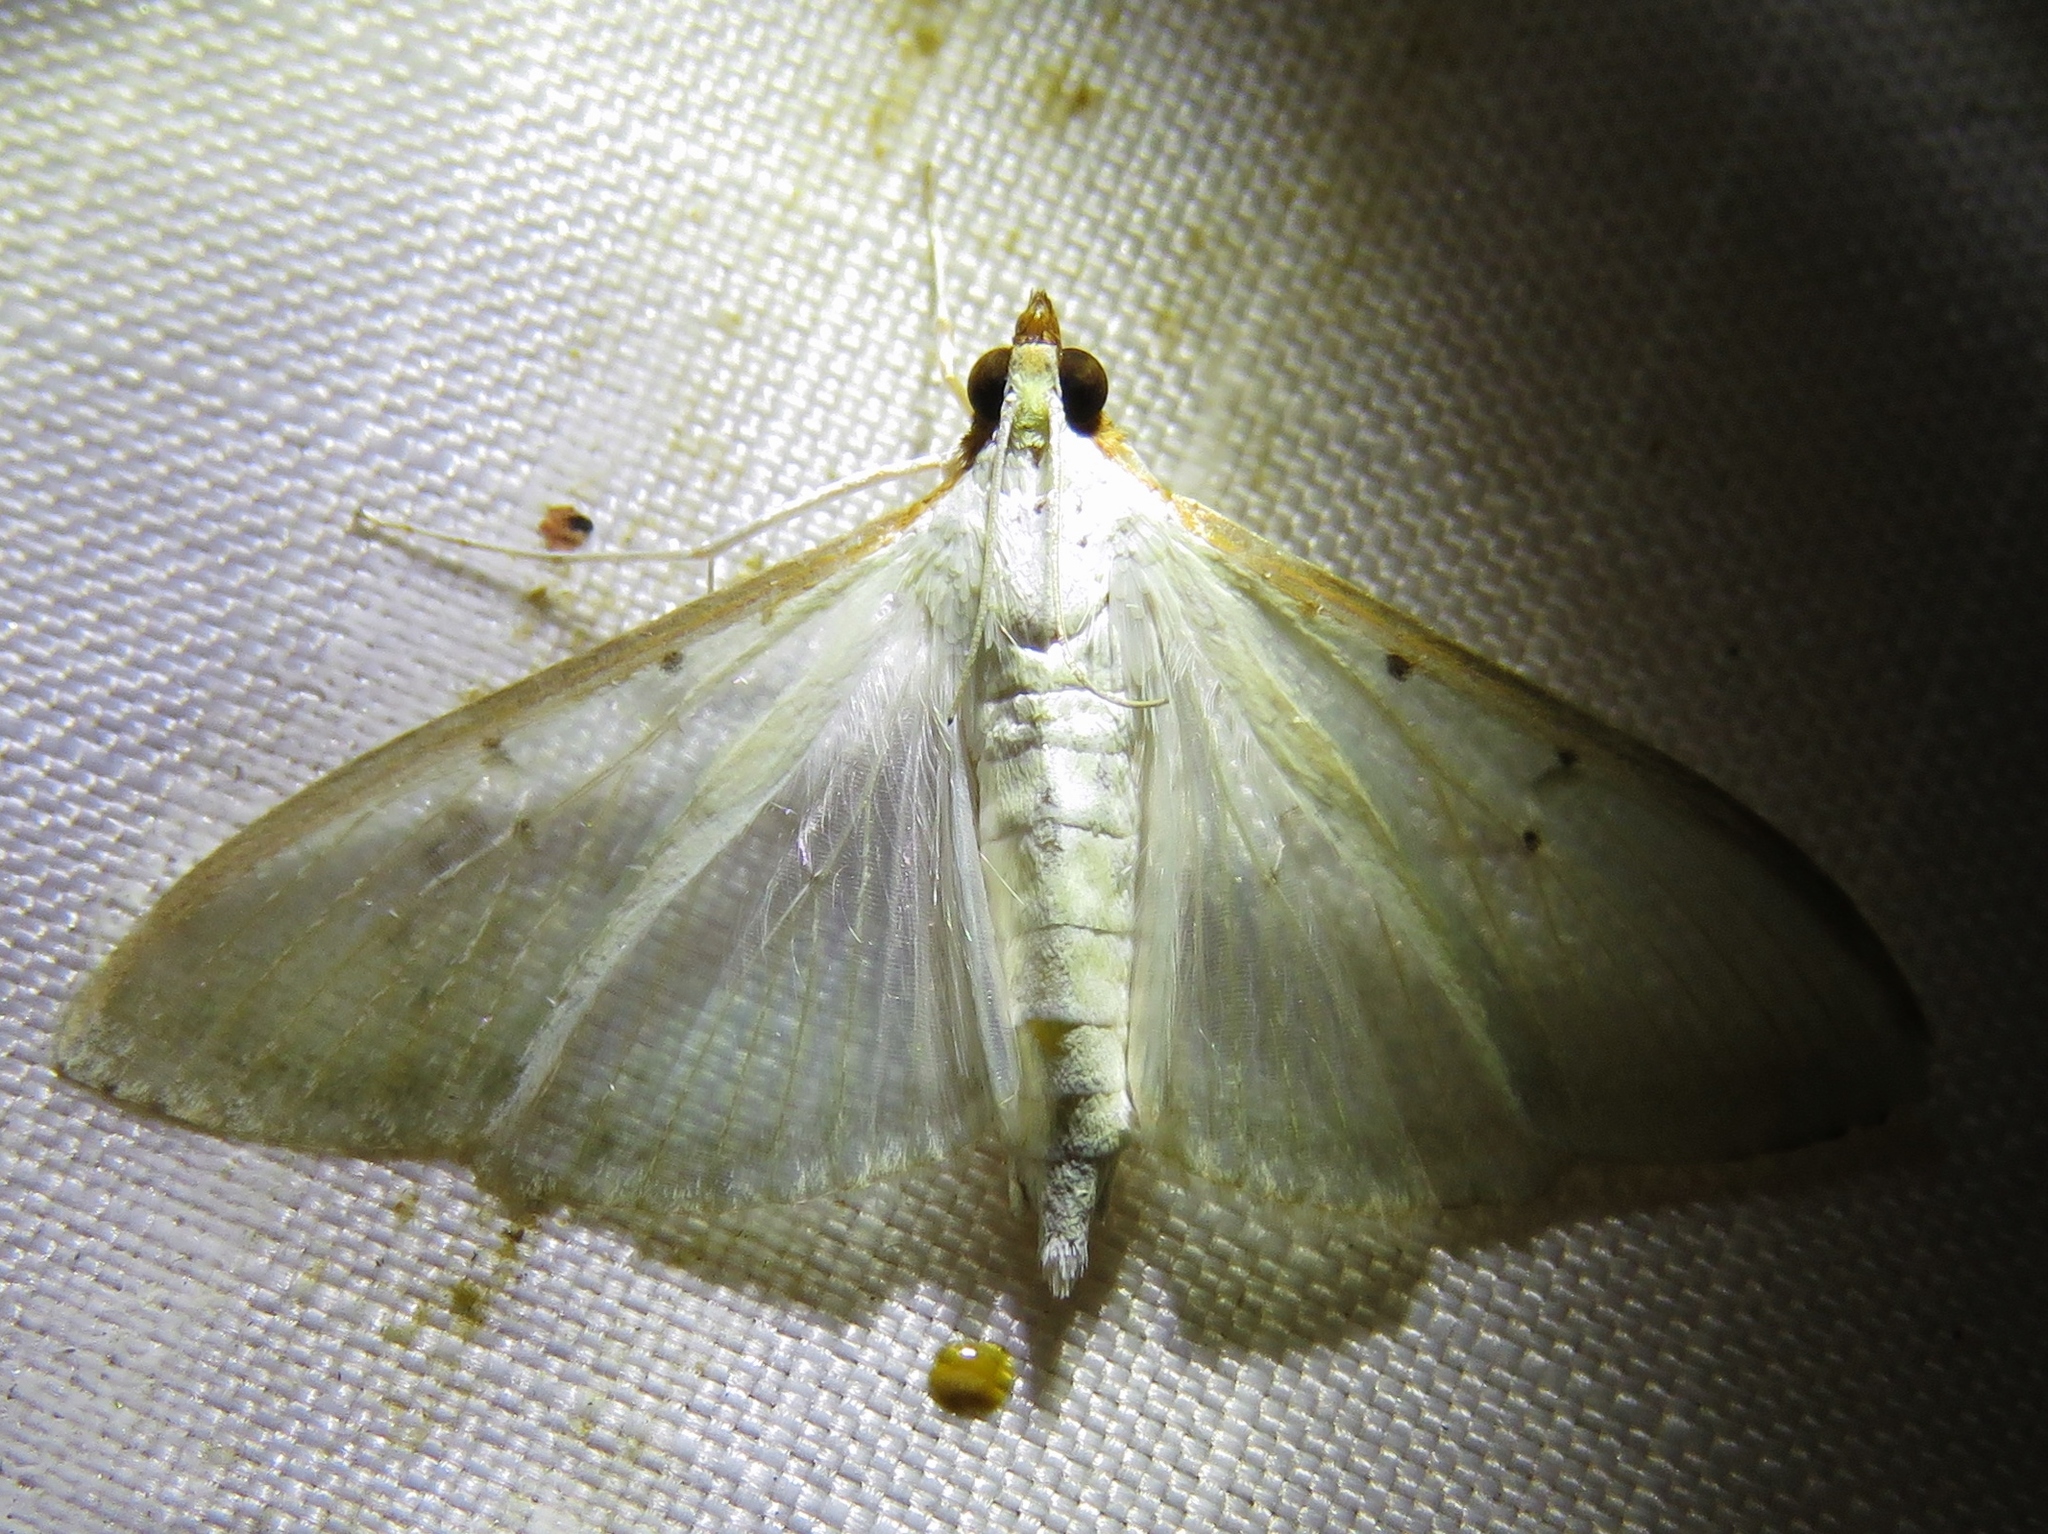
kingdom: Animalia
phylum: Arthropoda
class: Insecta
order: Lepidoptera
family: Crambidae
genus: Palpita
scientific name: Palpita quadristigmalis
